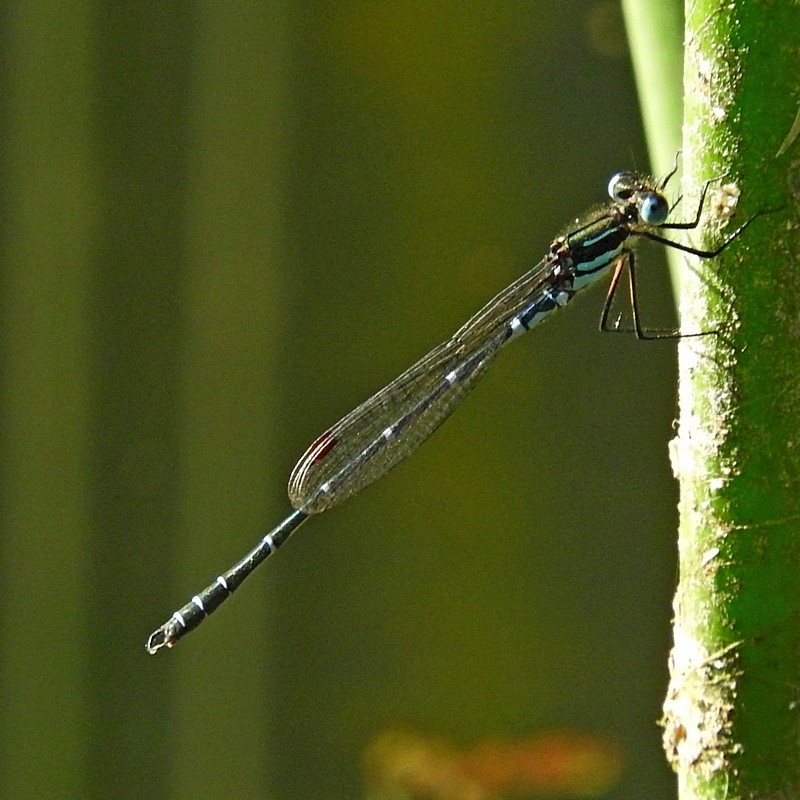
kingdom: Animalia
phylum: Arthropoda
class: Insecta
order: Odonata
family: Lestidae
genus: Austrolestes
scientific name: Austrolestes psyche
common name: Cup ringtail
